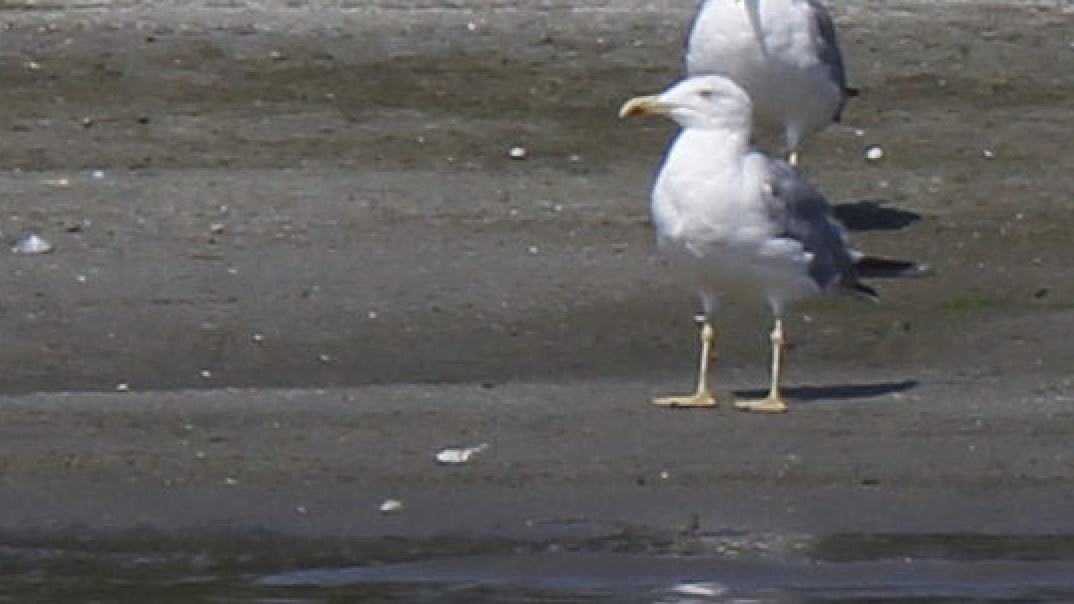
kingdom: Animalia
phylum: Chordata
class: Aves
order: Charadriiformes
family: Laridae
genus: Larus
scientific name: Larus michahellis
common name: Yellow-legged gull
